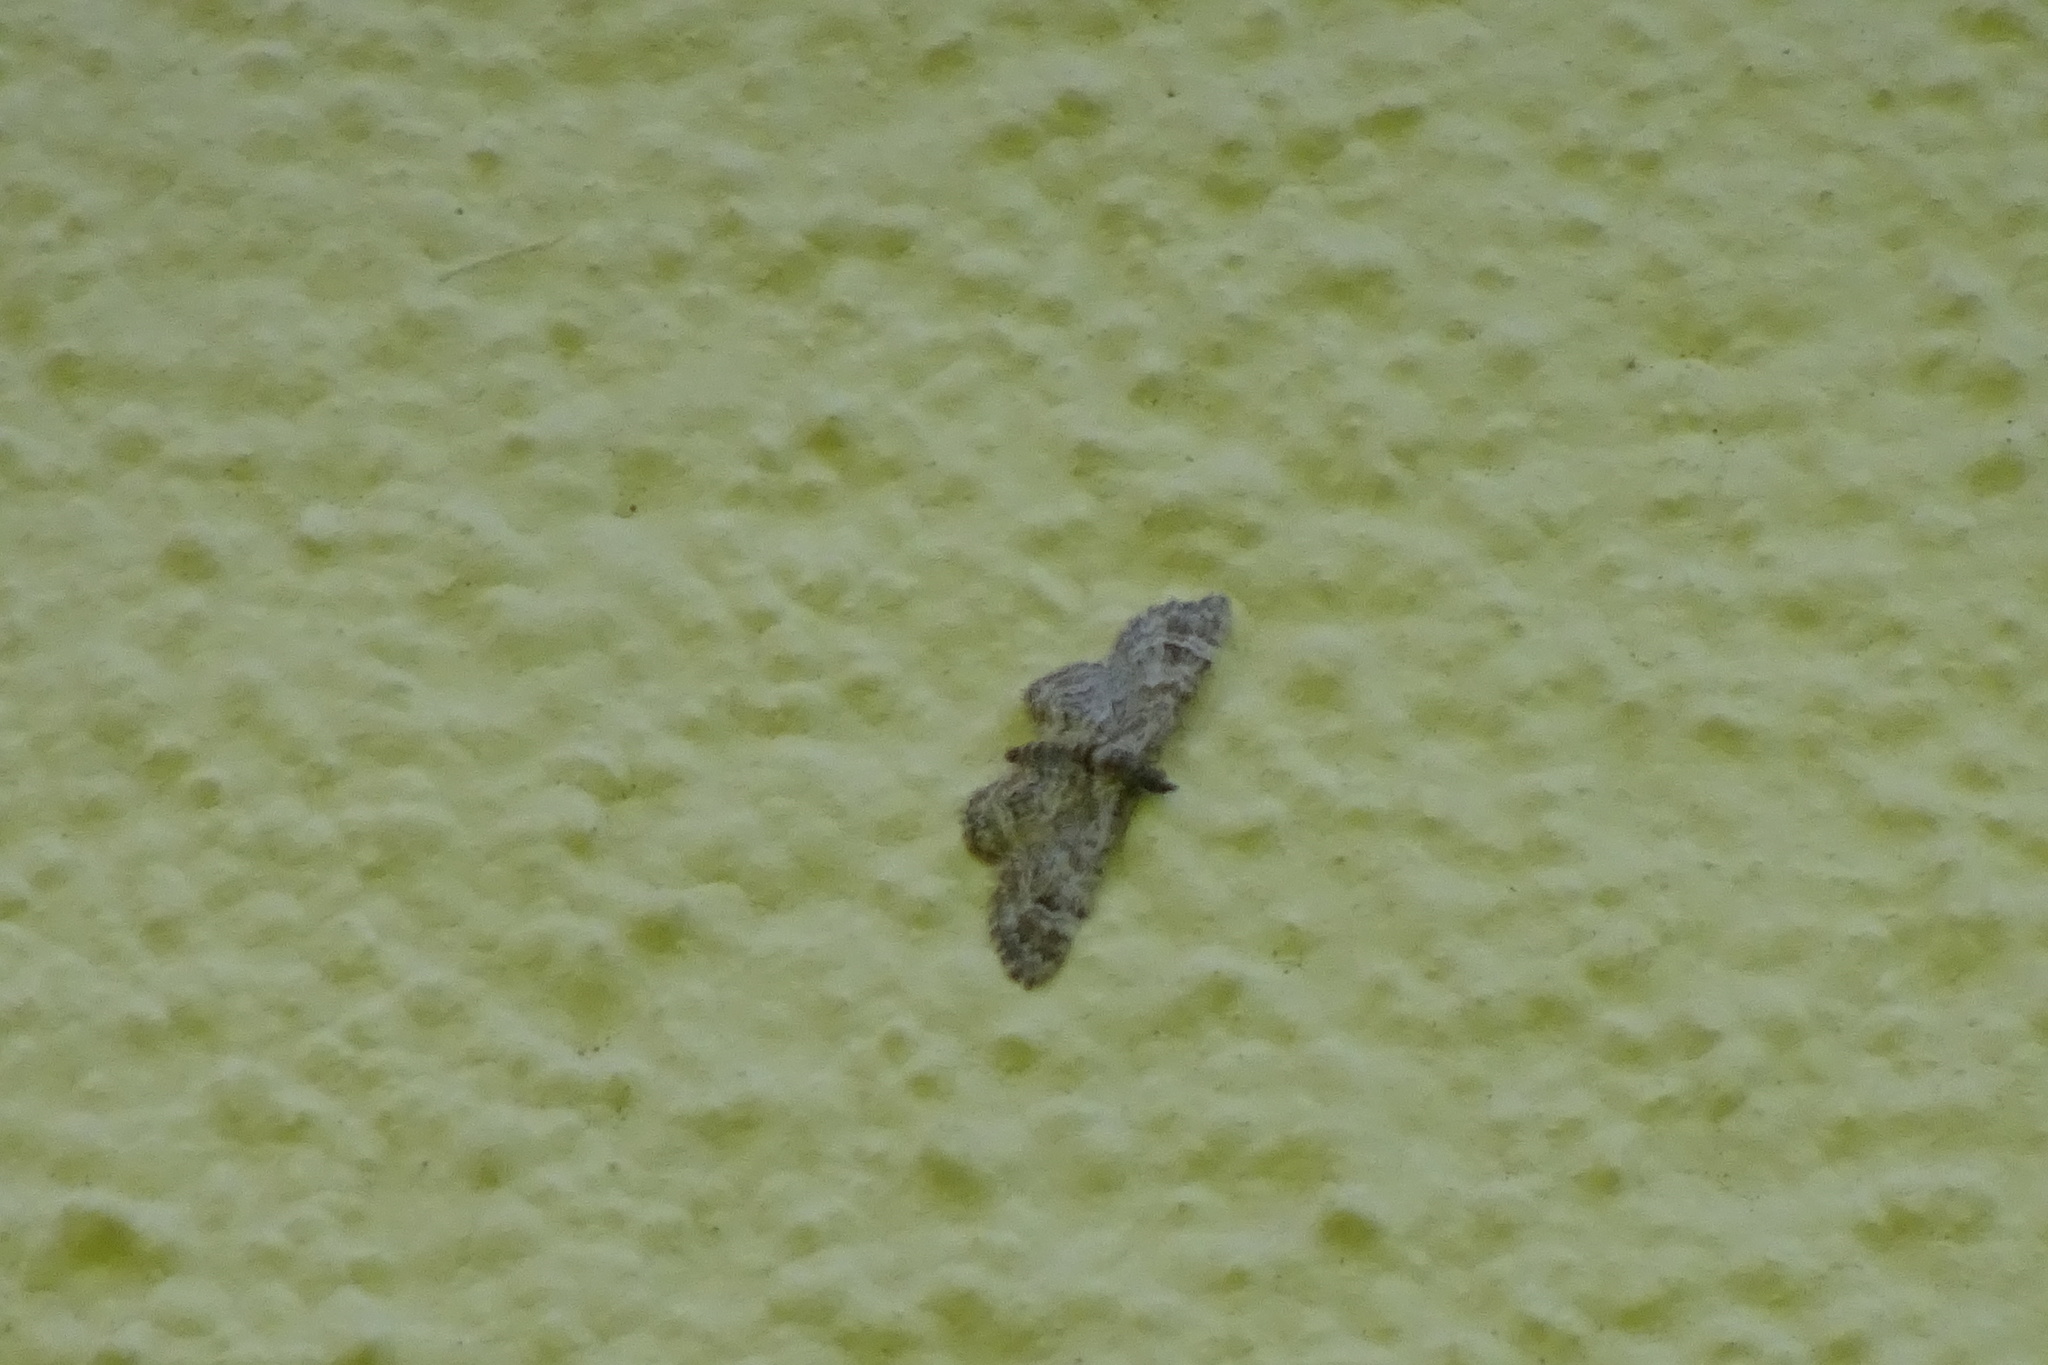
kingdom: Animalia
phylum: Arthropoda
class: Insecta
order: Lepidoptera
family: Geometridae
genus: Gymnoscelis
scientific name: Gymnoscelis rufifasciata
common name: Double-striped pug
